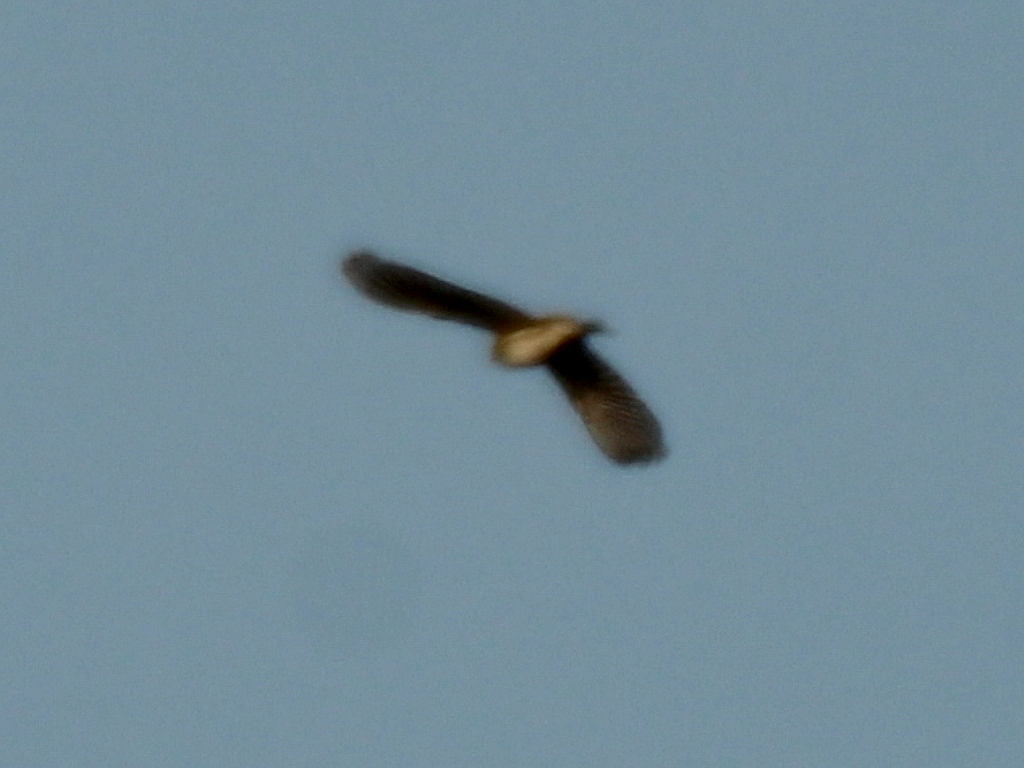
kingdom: Animalia
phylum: Chordata
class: Aves
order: Passeriformes
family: Motacillidae
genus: Anthus
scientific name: Anthus pratensis
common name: Meadow pipit
